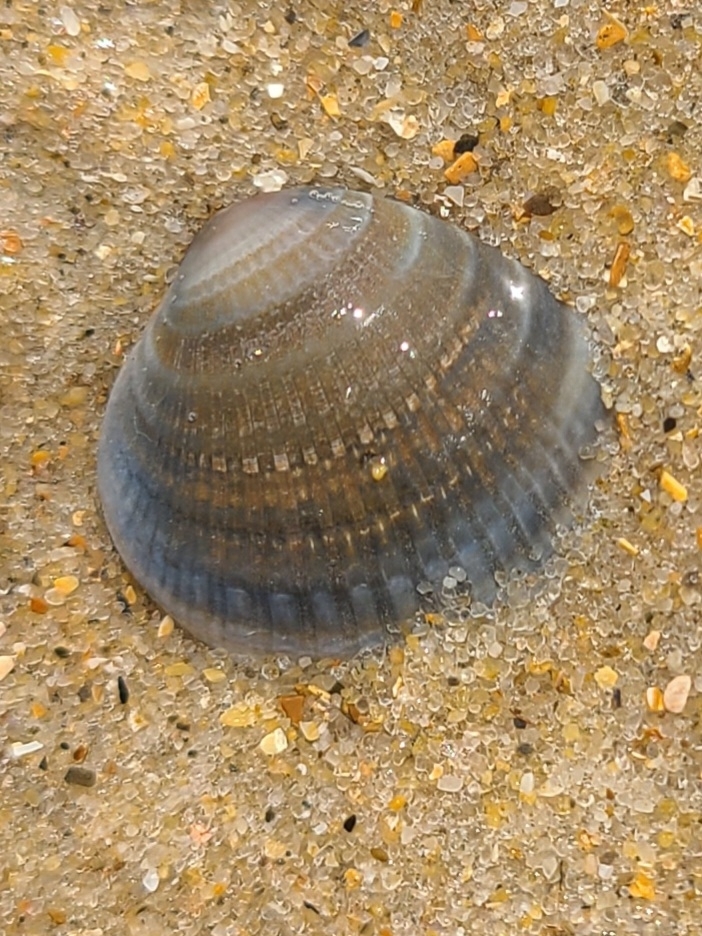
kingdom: Animalia
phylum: Mollusca
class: Bivalvia
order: Venerida
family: Veneridae
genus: Chione
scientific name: Chione elevata
